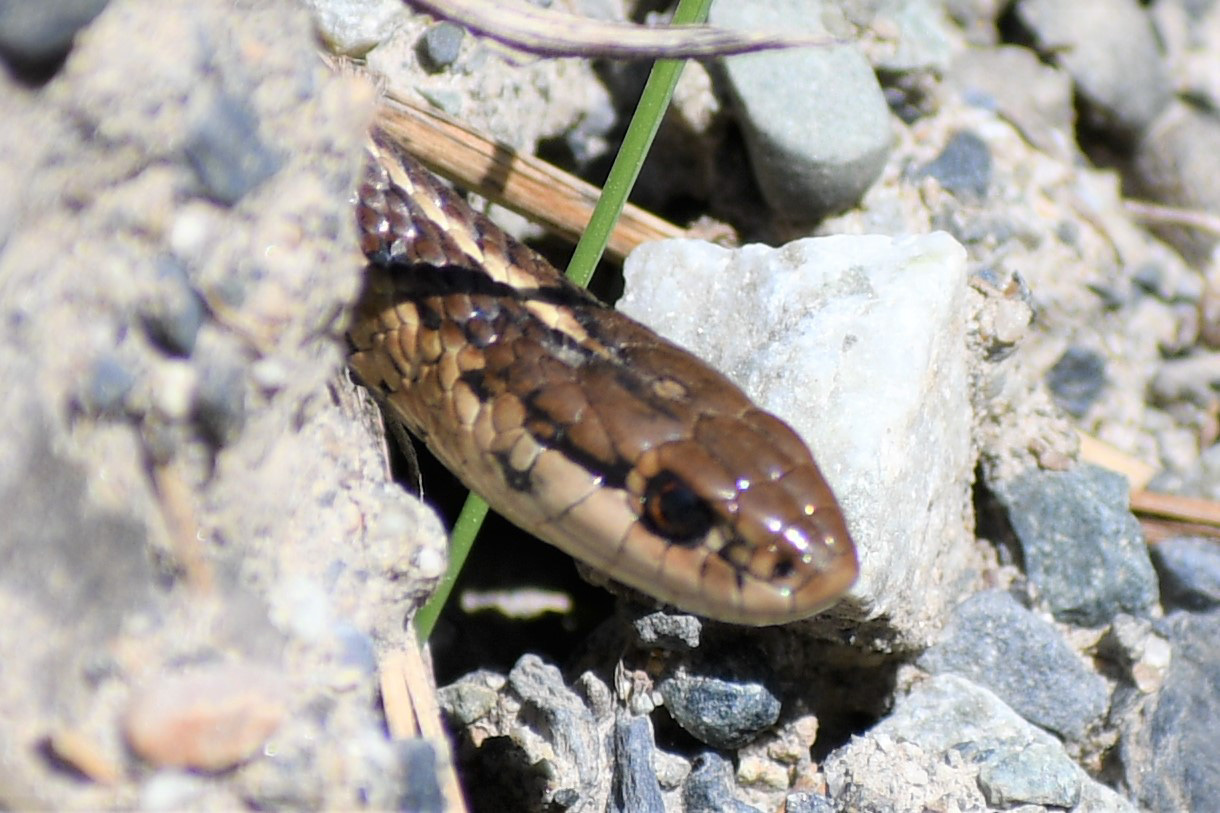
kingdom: Animalia
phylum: Chordata
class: Squamata
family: Colubridae
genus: Thamnophis
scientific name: Thamnophis ordinoides
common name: Northwestern garter snake
